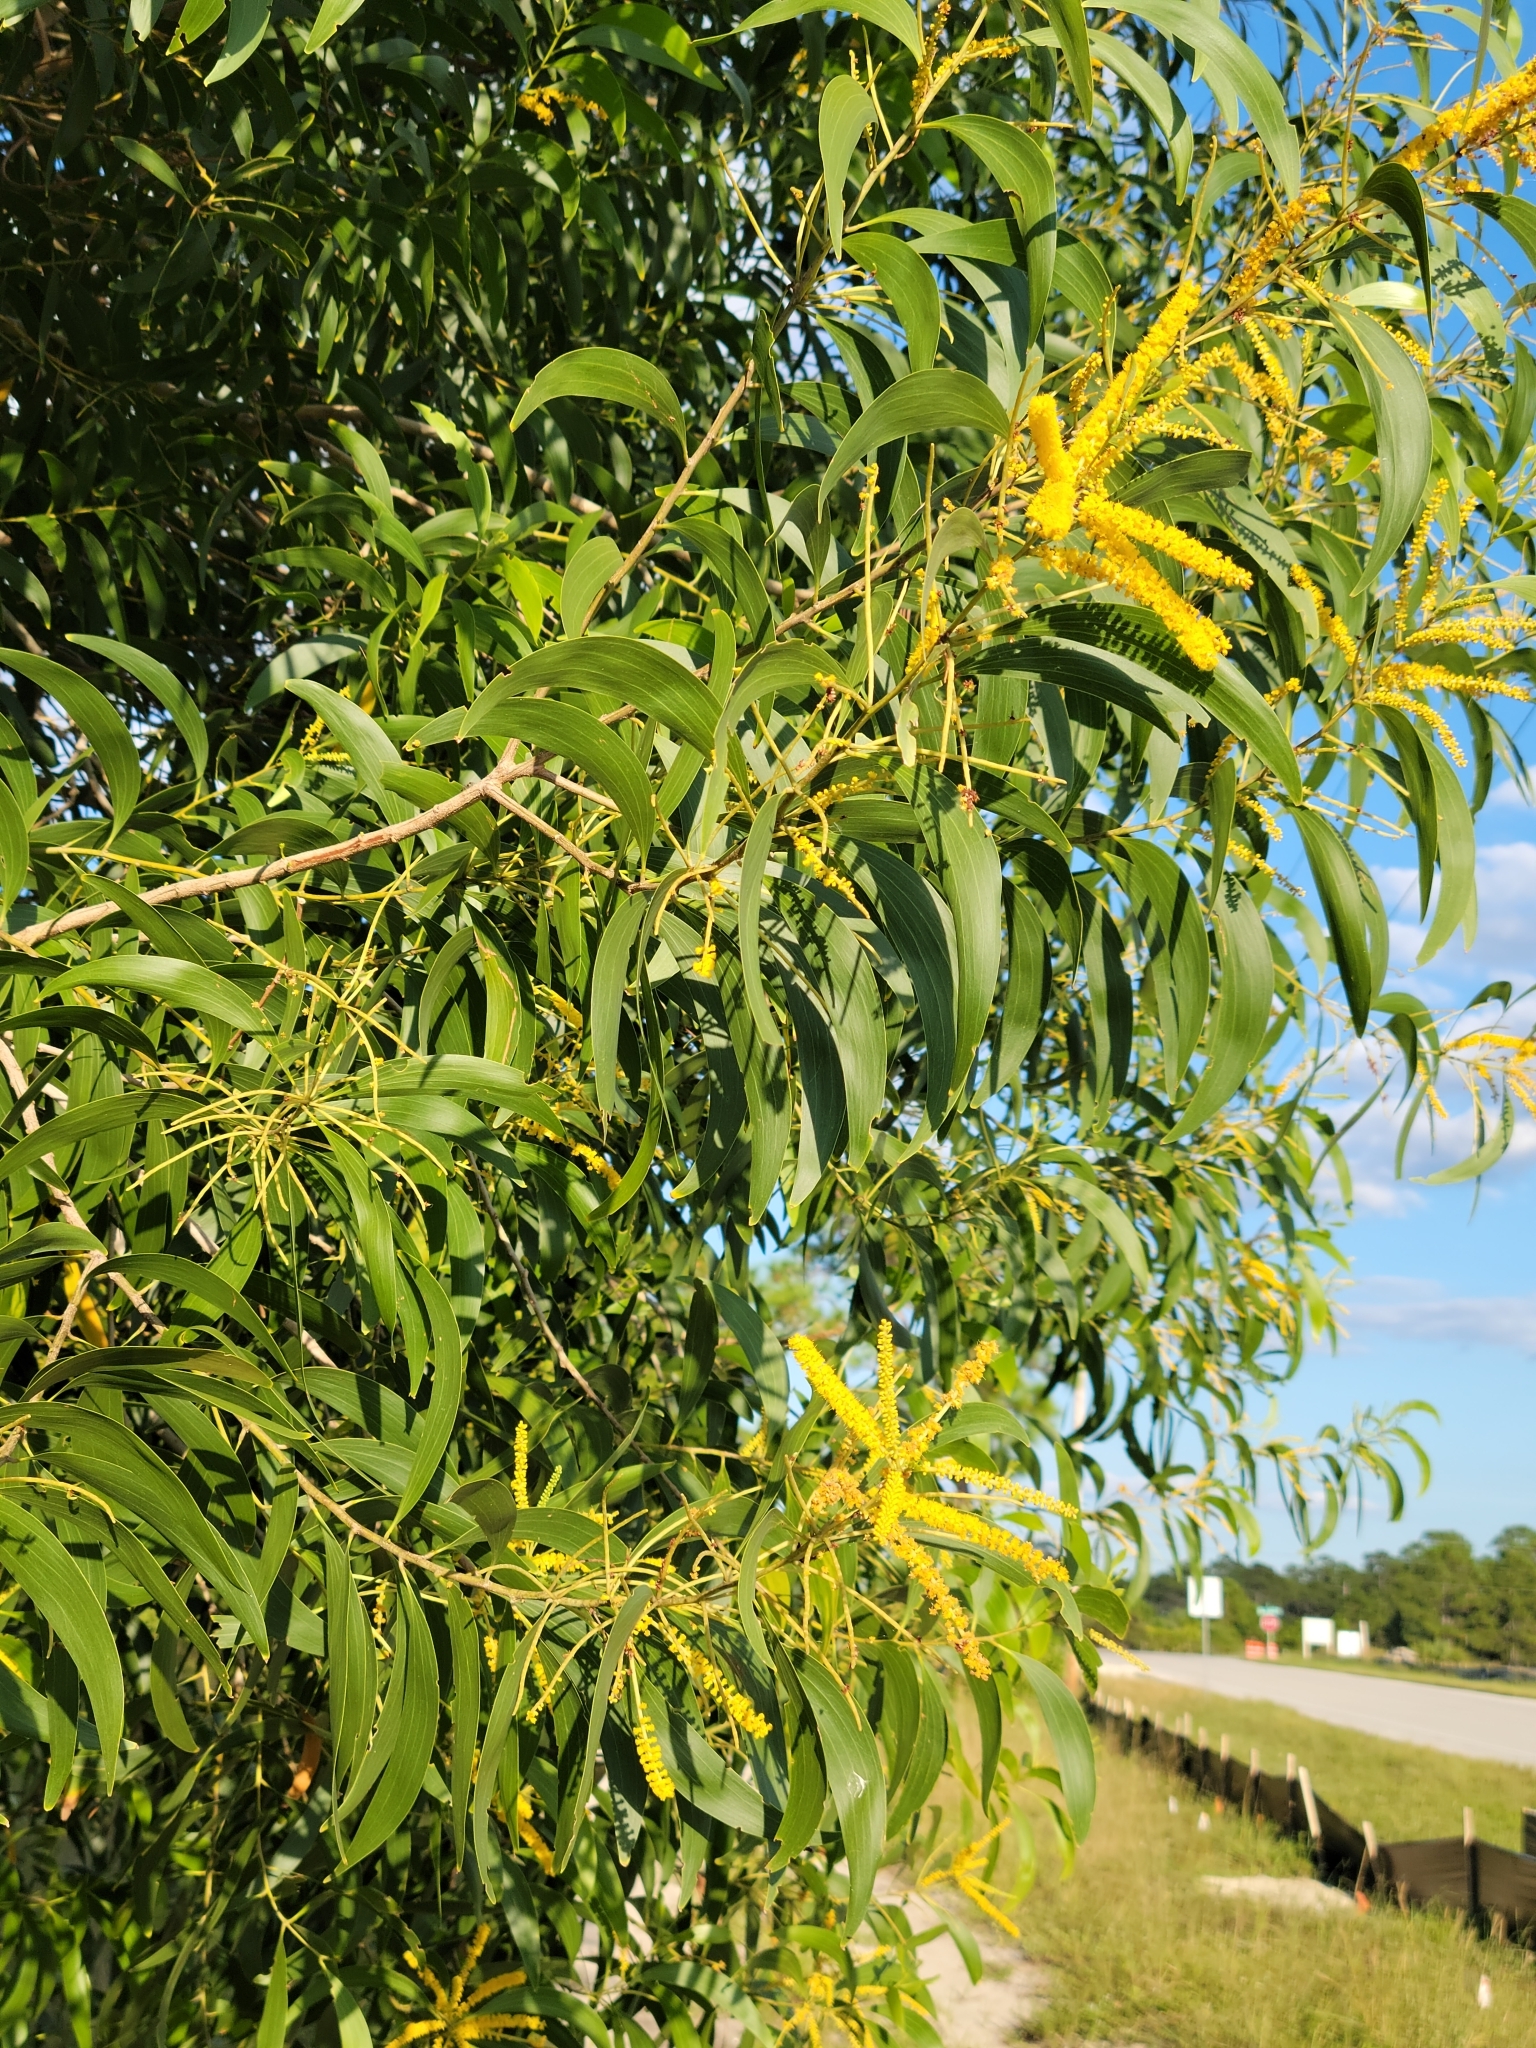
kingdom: Plantae
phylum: Tracheophyta
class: Magnoliopsida
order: Fabales
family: Fabaceae
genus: Acacia
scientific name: Acacia auriculiformis
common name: Earleaf acacia
